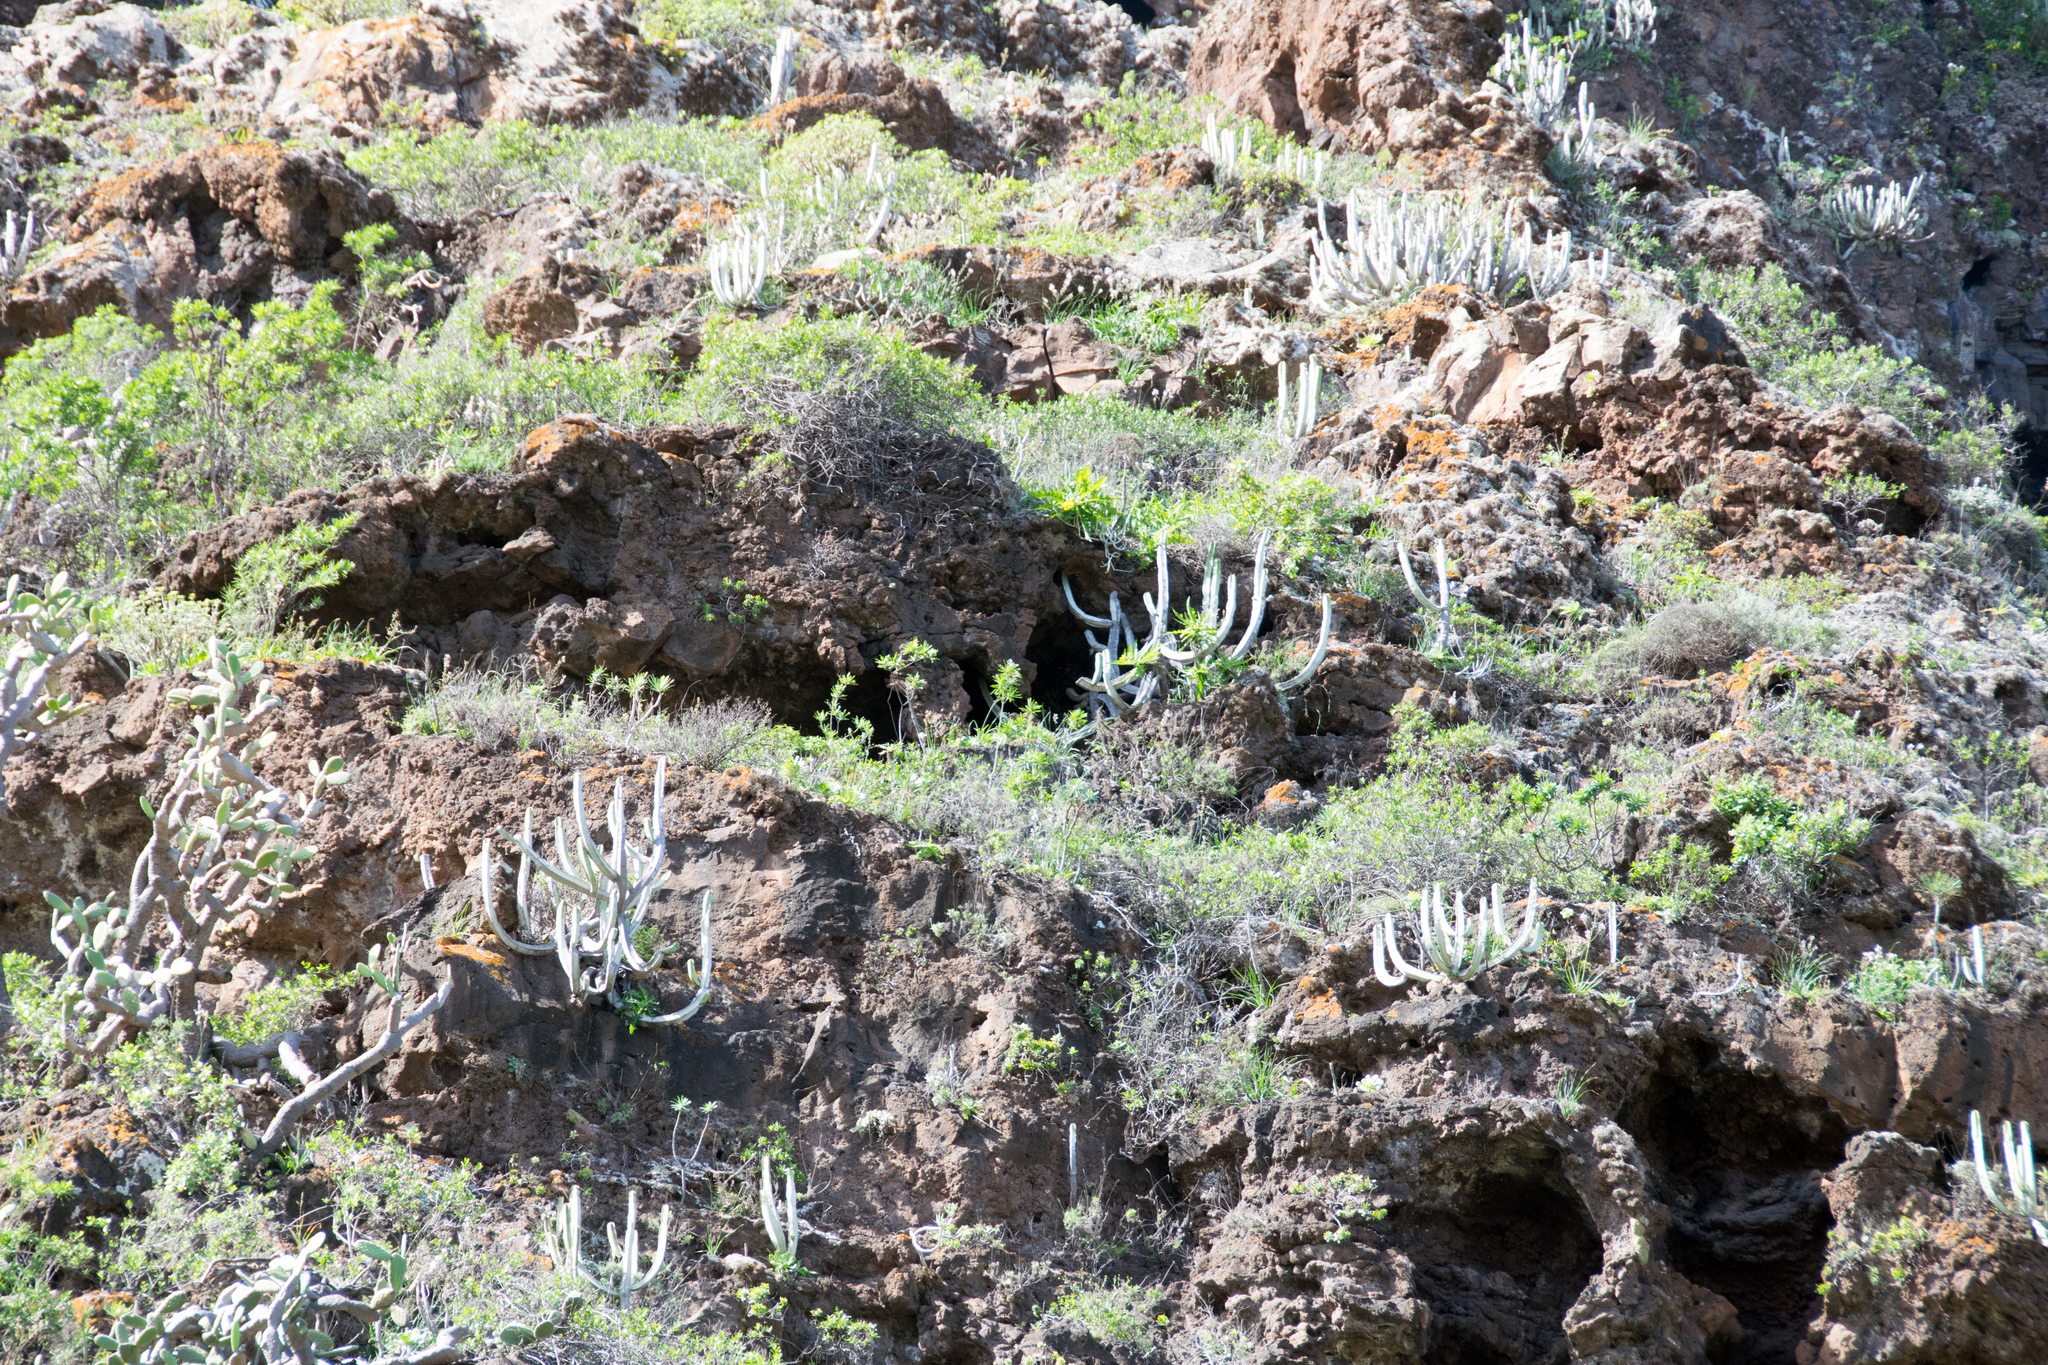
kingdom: Plantae
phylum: Tracheophyta
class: Magnoliopsida
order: Malpighiales
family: Euphorbiaceae
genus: Euphorbia
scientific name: Euphorbia canariensis
